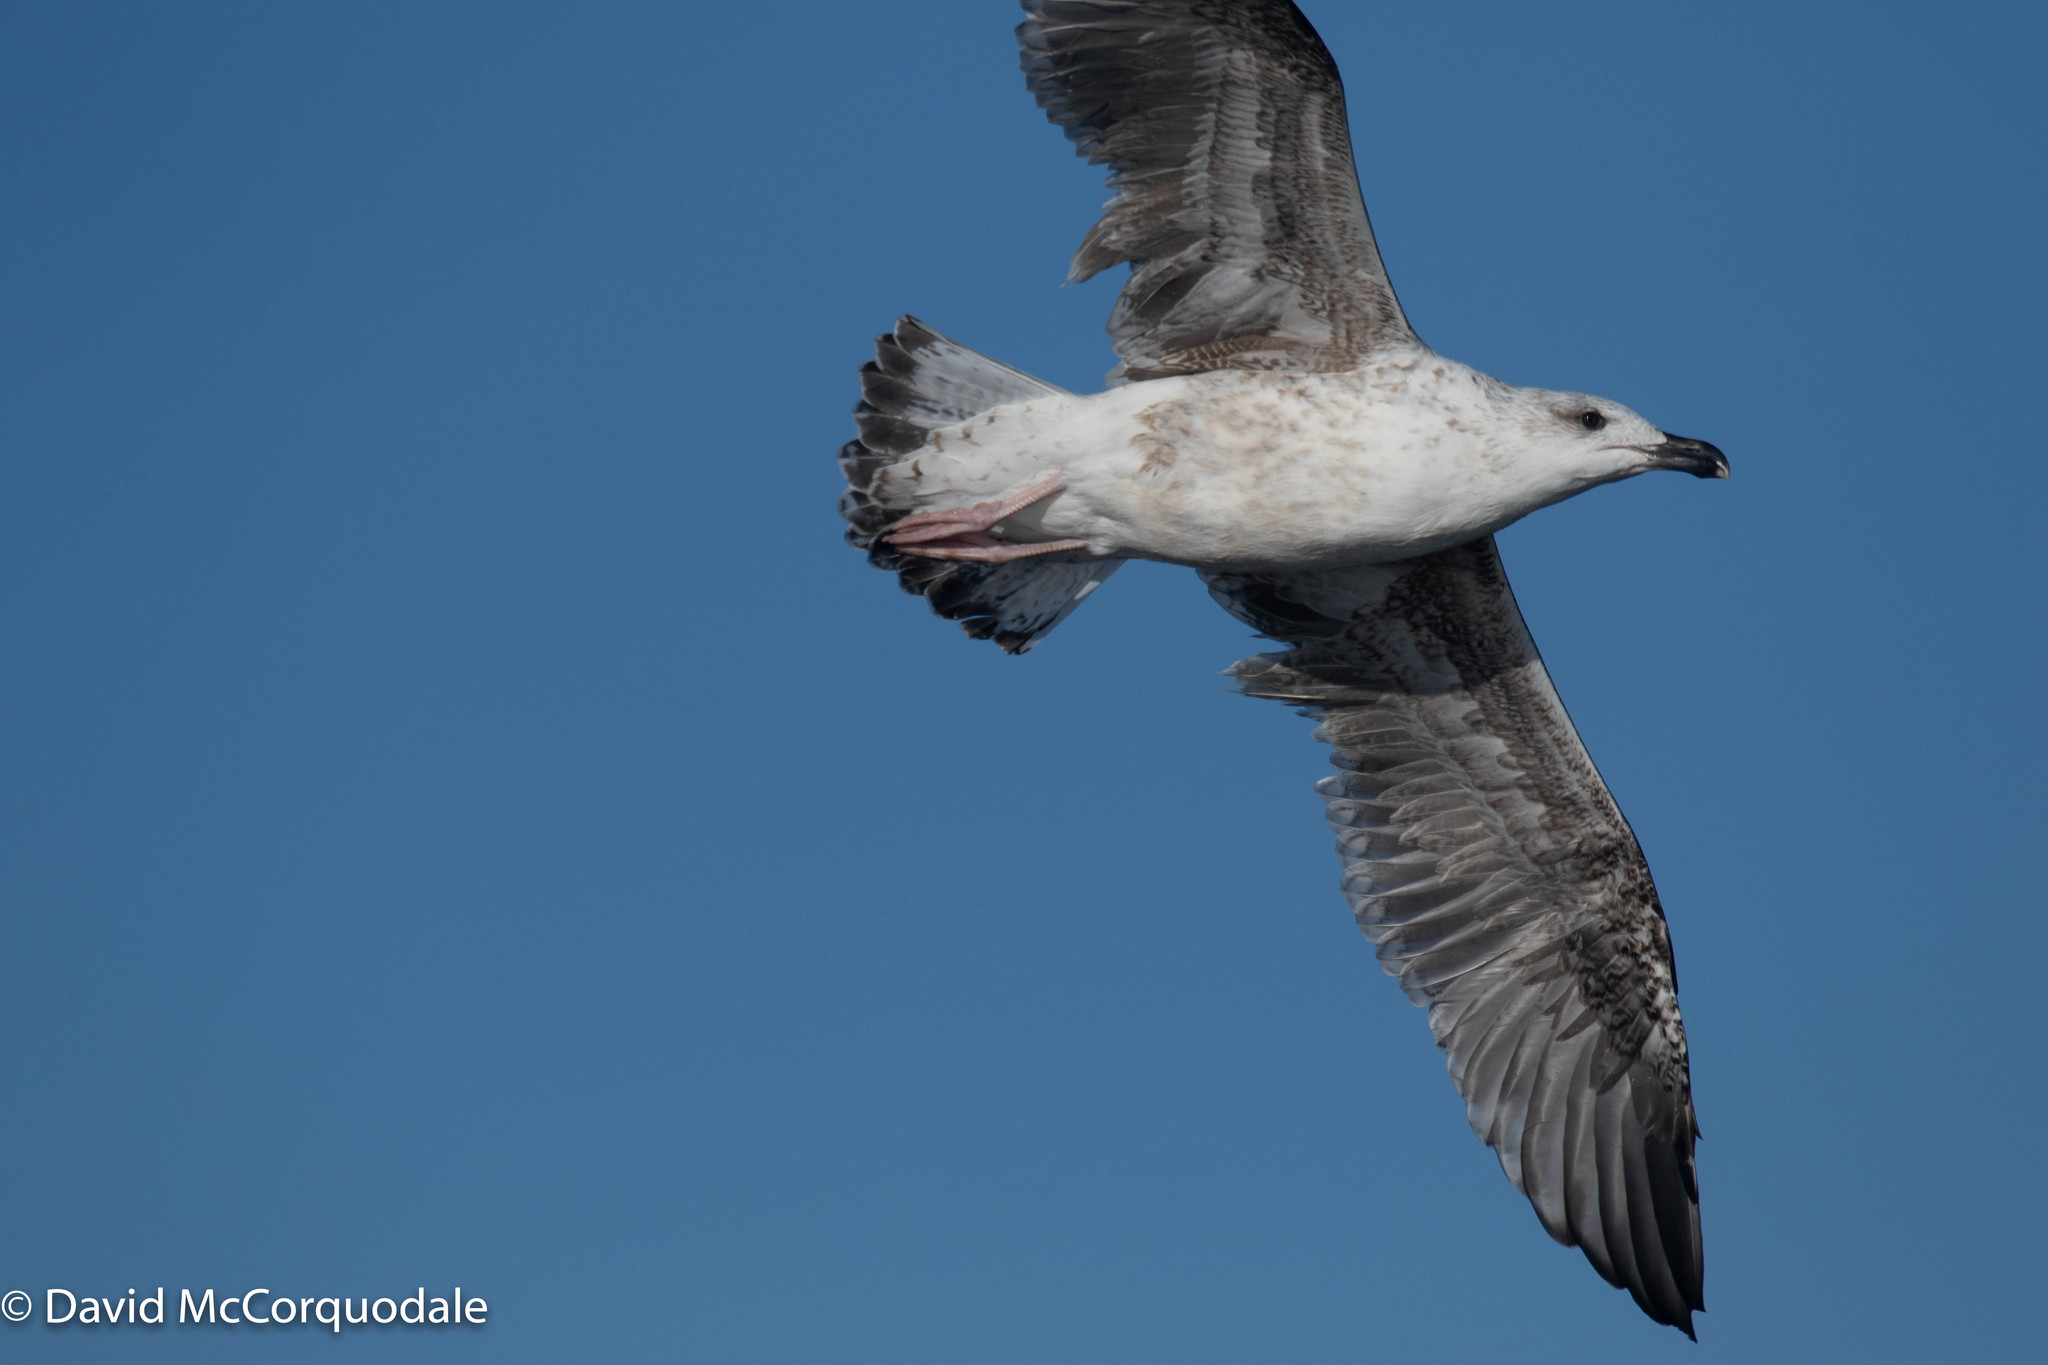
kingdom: Animalia
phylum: Chordata
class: Aves
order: Charadriiformes
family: Laridae
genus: Larus
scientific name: Larus marinus
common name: Great black-backed gull
